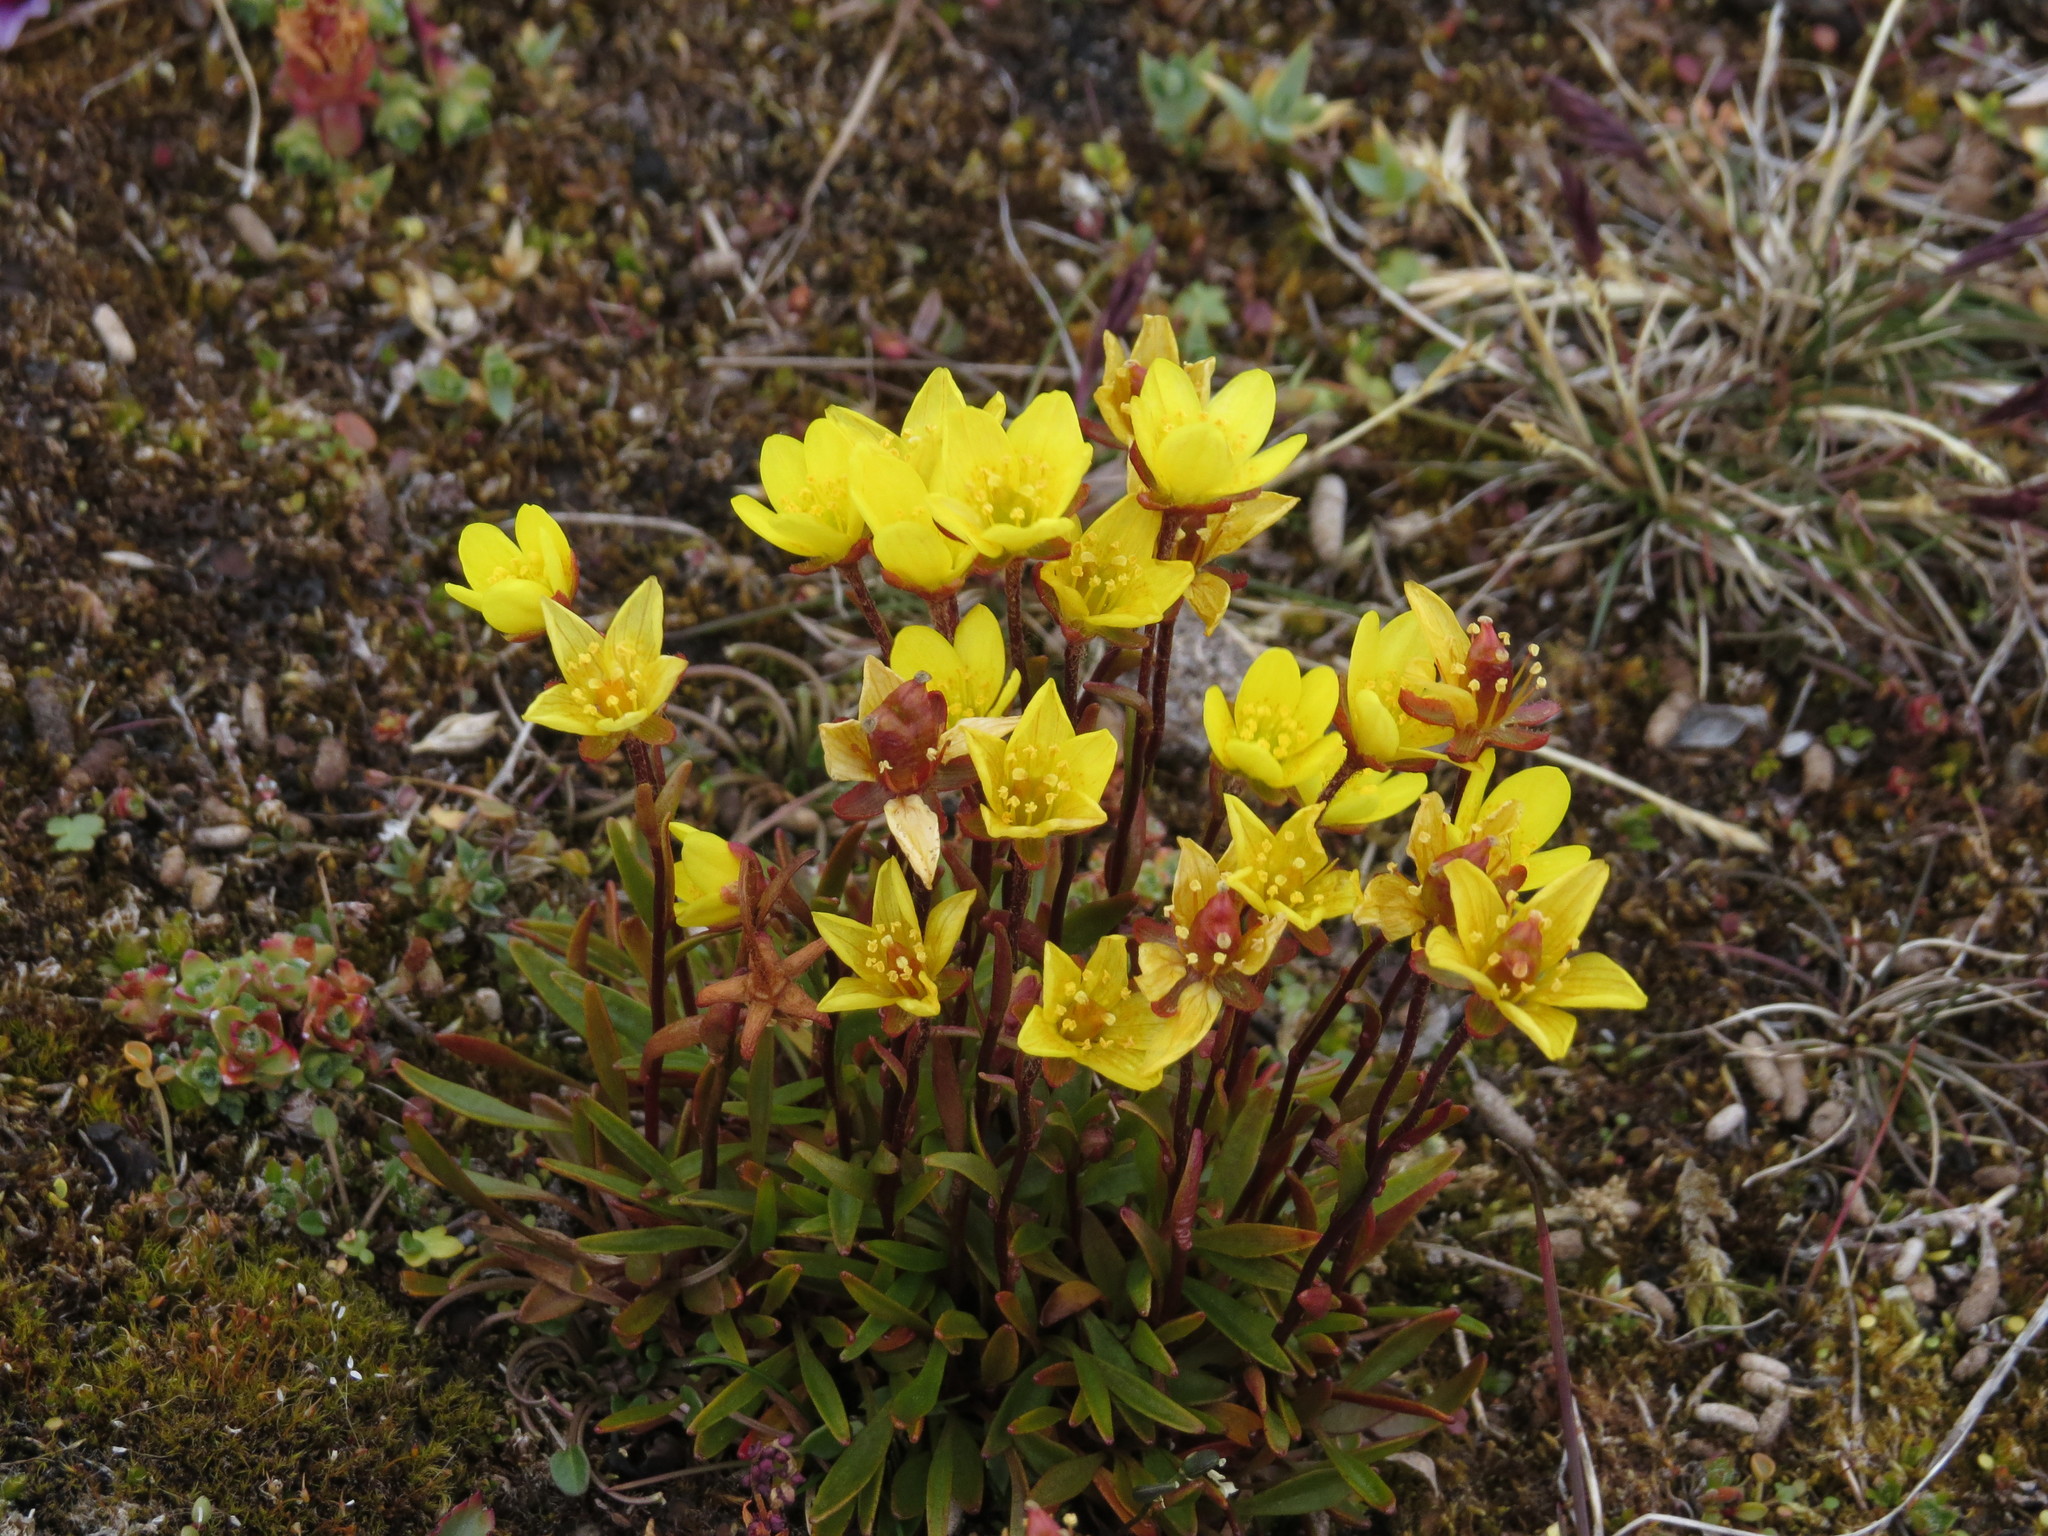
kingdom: Plantae
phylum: Tracheophyta
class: Magnoliopsida
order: Saxifragales
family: Saxifragaceae
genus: Saxifraga
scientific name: Saxifraga hirculus
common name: Yellow marsh saxifrage
